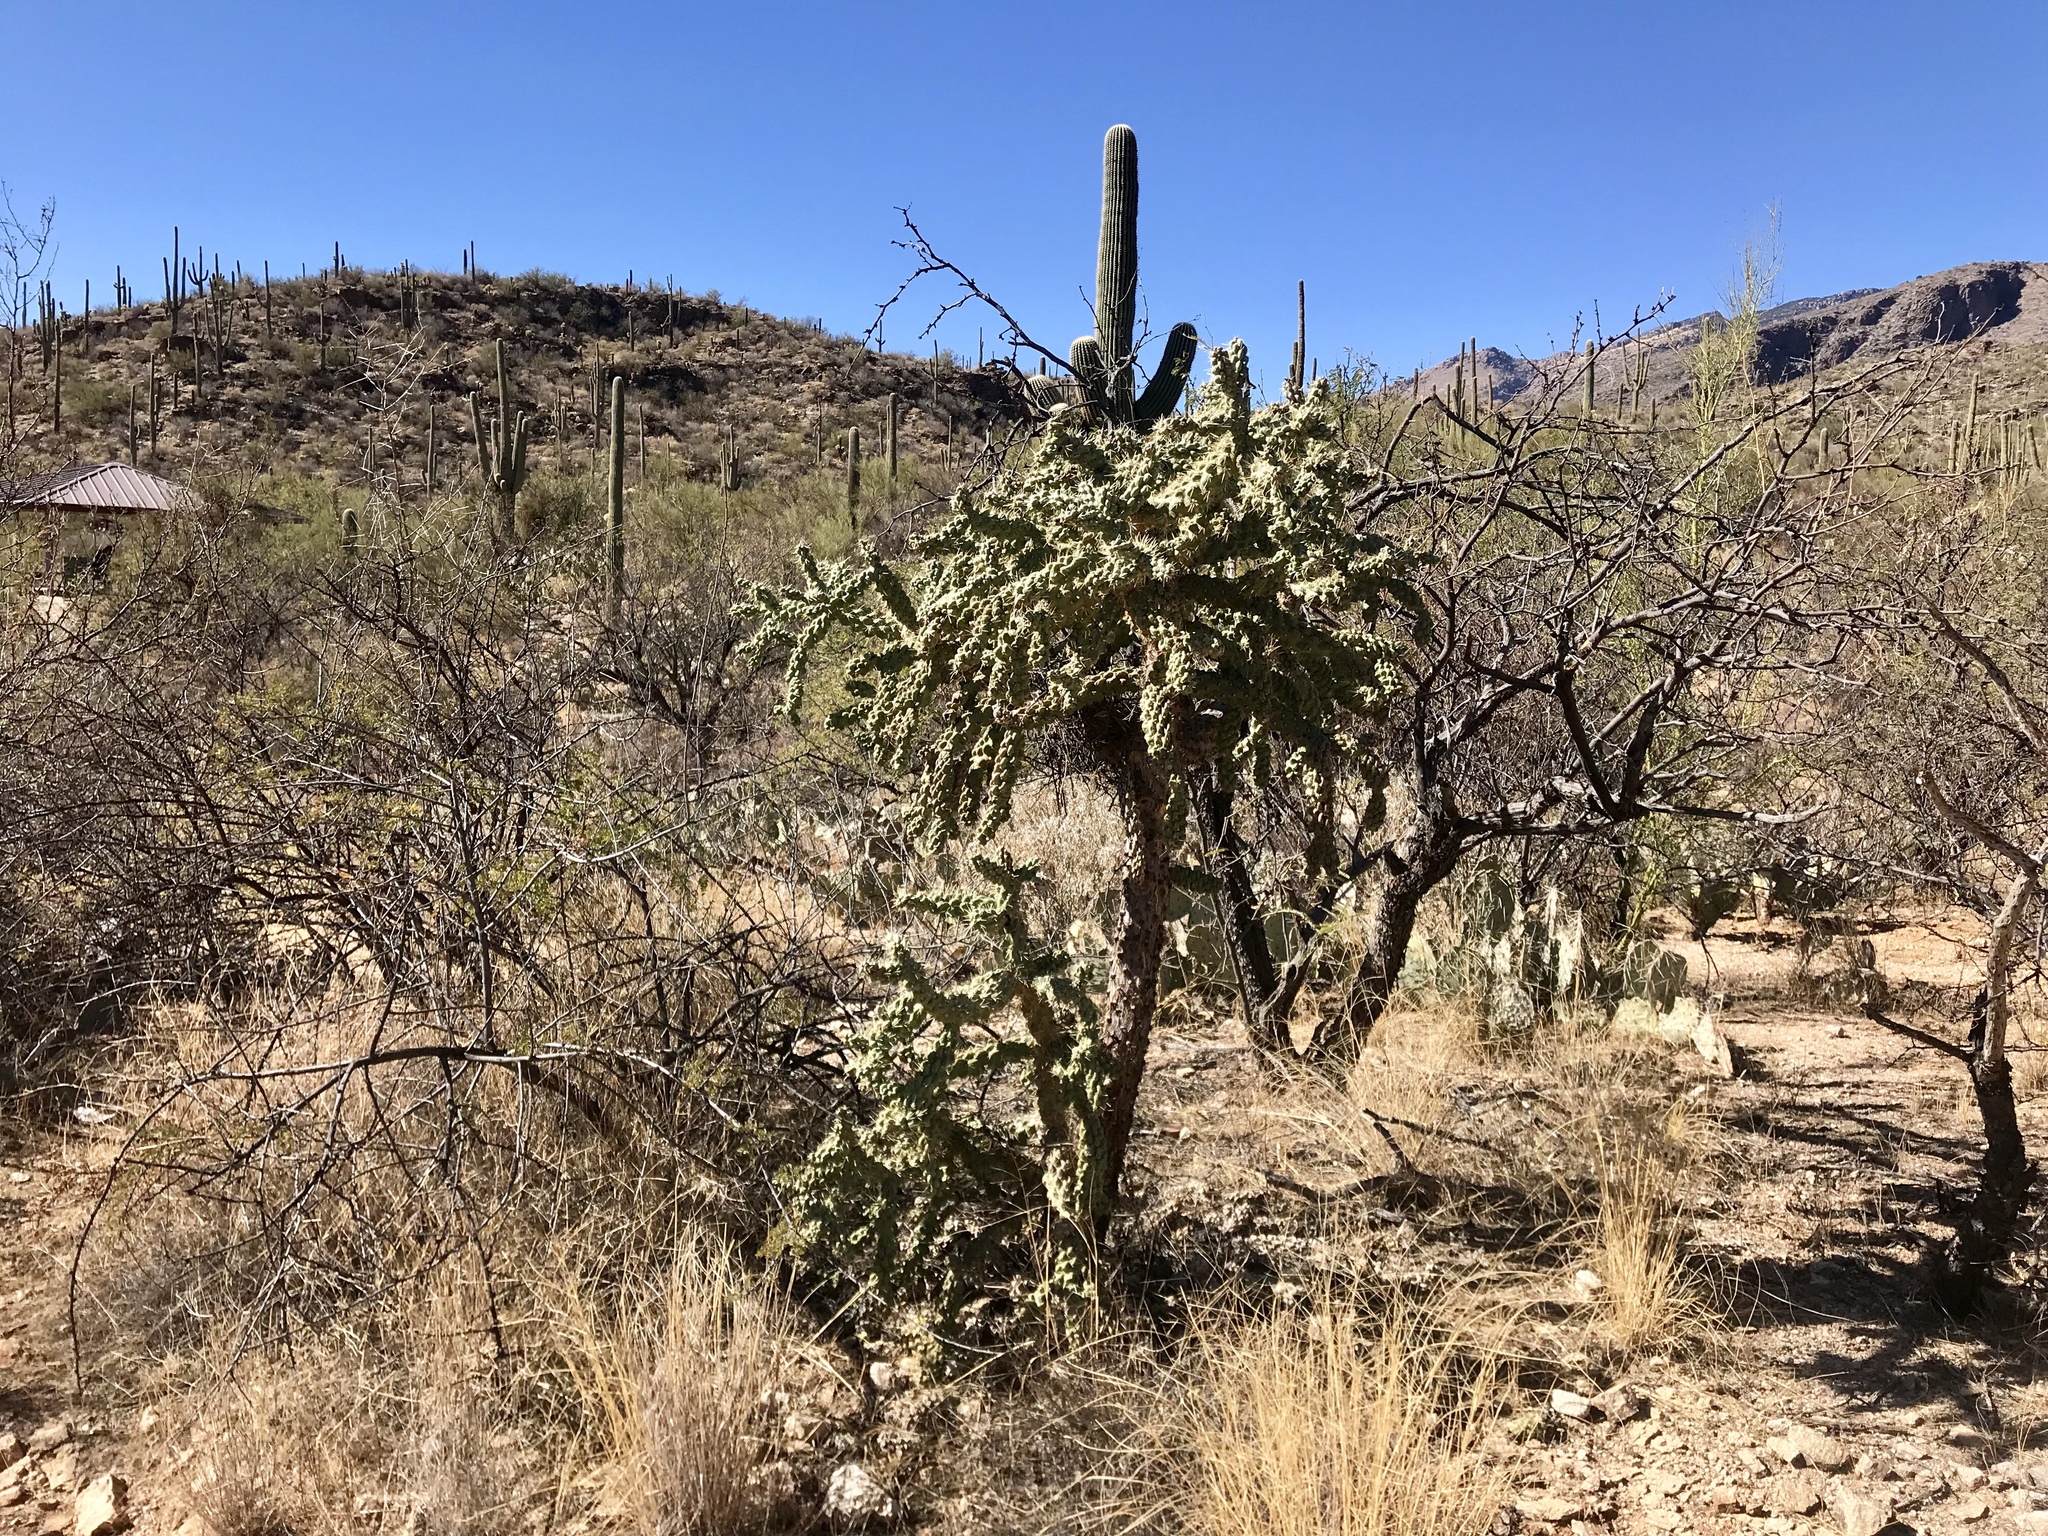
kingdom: Plantae
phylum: Tracheophyta
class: Magnoliopsida
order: Caryophyllales
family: Cactaceae
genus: Cylindropuntia
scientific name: Cylindropuntia fulgida
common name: Jumping cholla
